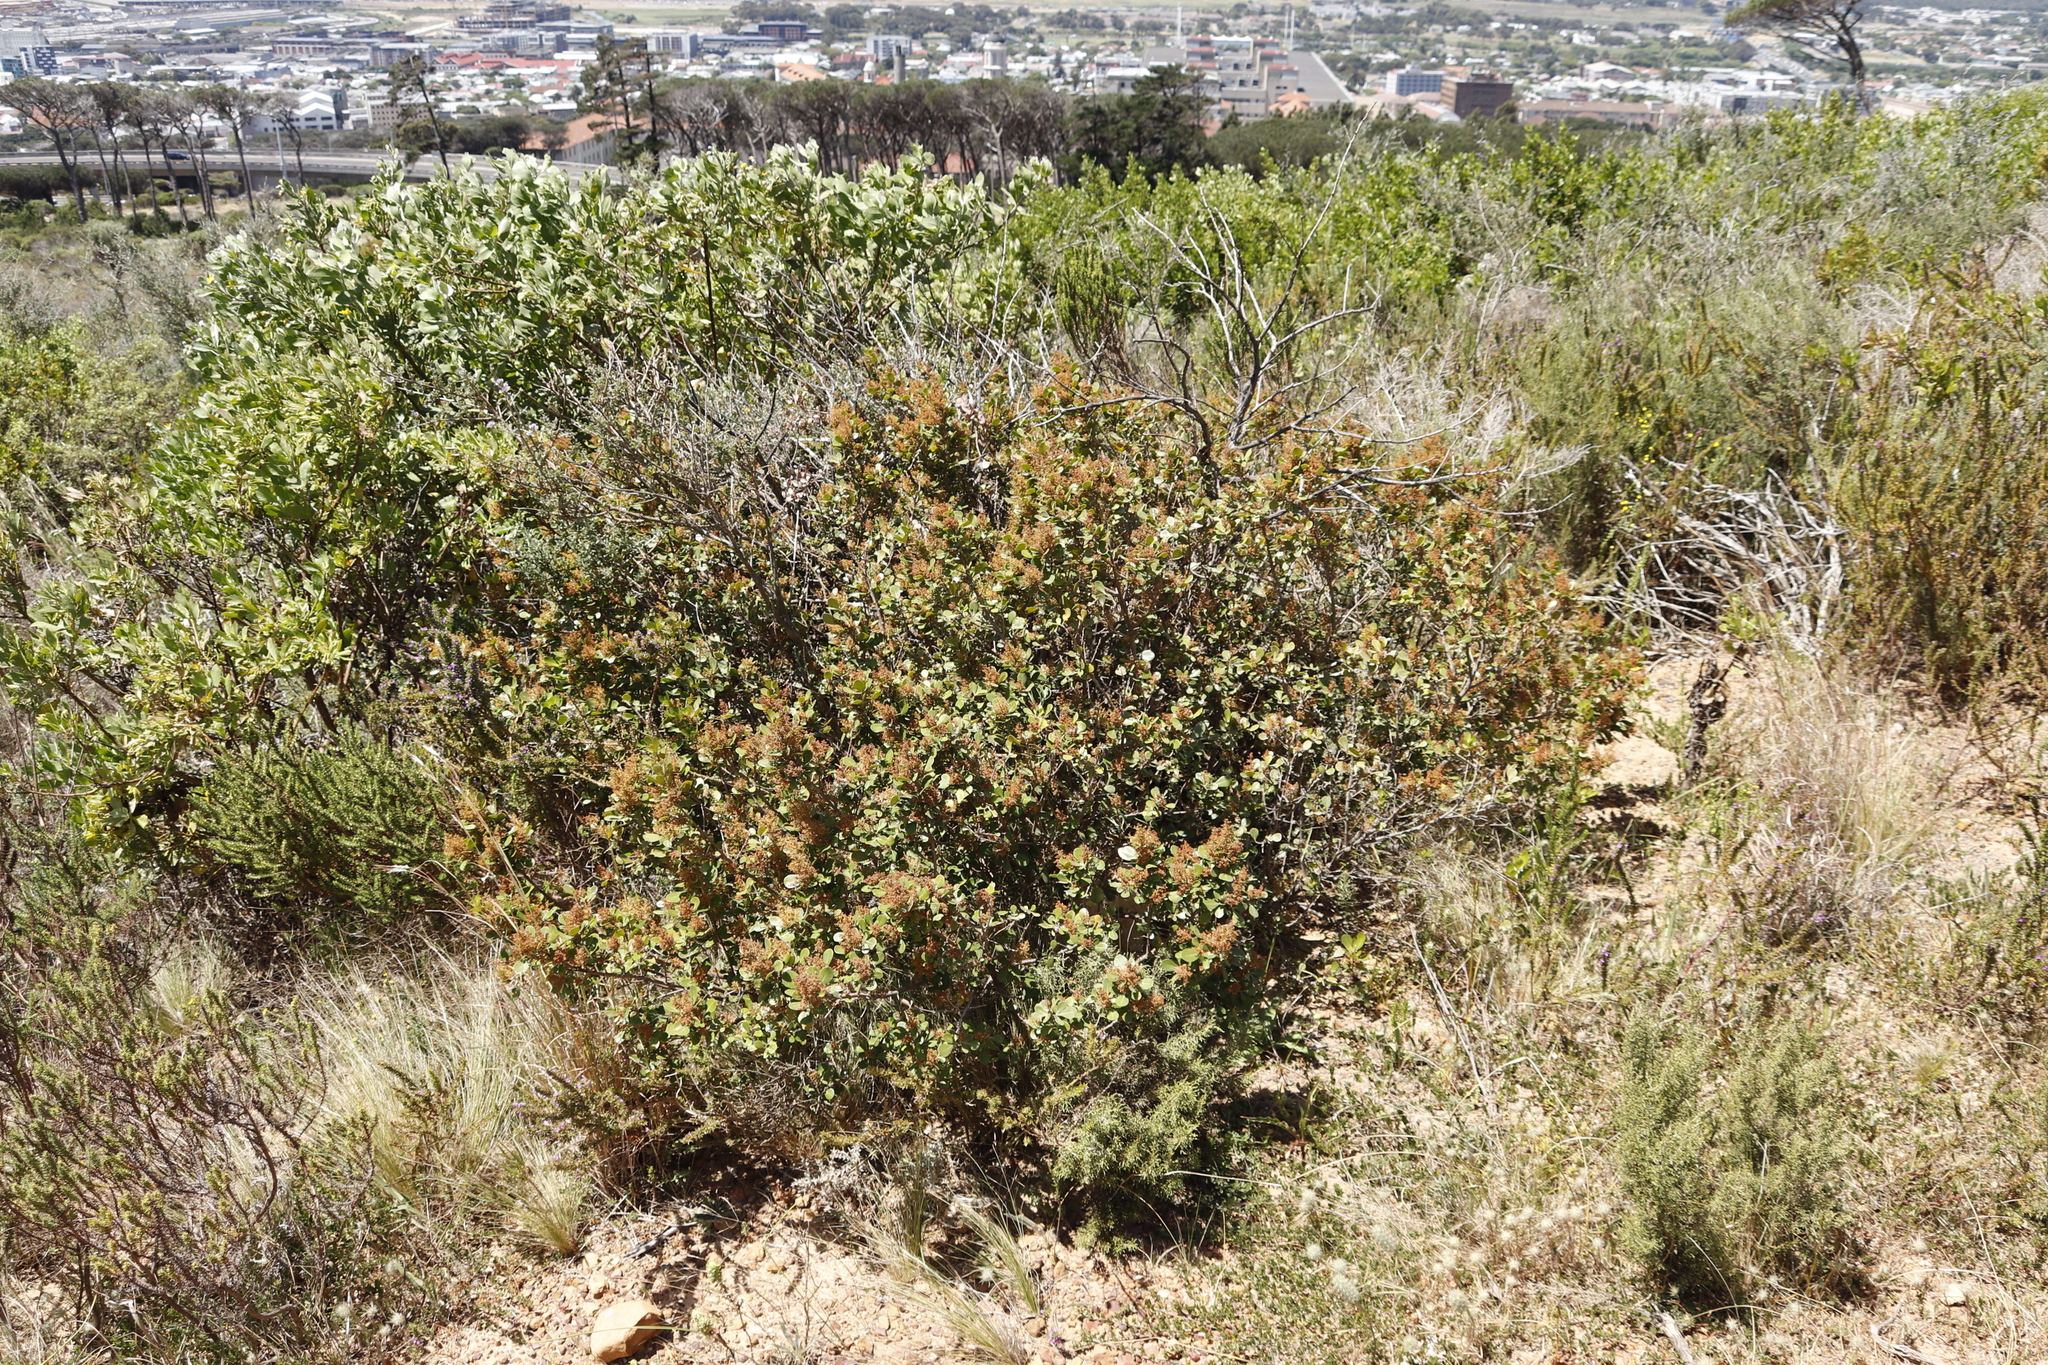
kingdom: Plantae
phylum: Tracheophyta
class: Magnoliopsida
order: Sapindales
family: Anacardiaceae
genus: Searsia
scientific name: Searsia lucida
